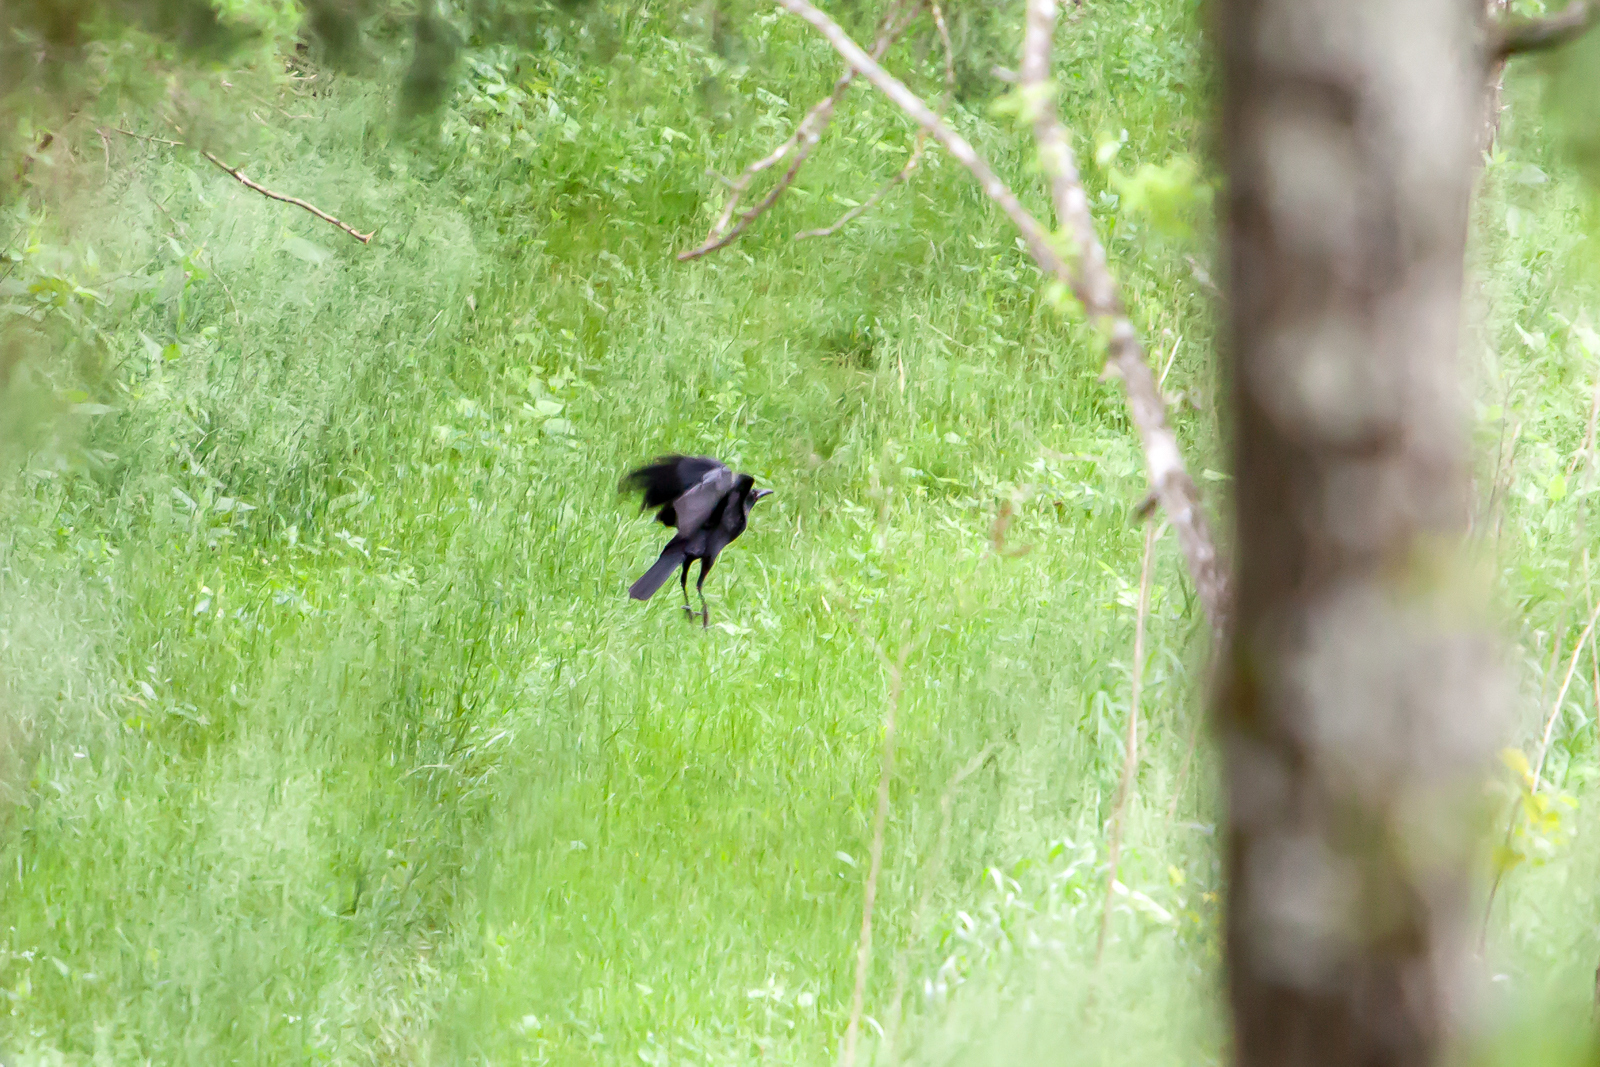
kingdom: Animalia
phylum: Chordata
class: Aves
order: Passeriformes
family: Corvidae
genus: Corvus
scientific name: Corvus brachyrhynchos
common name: American crow
